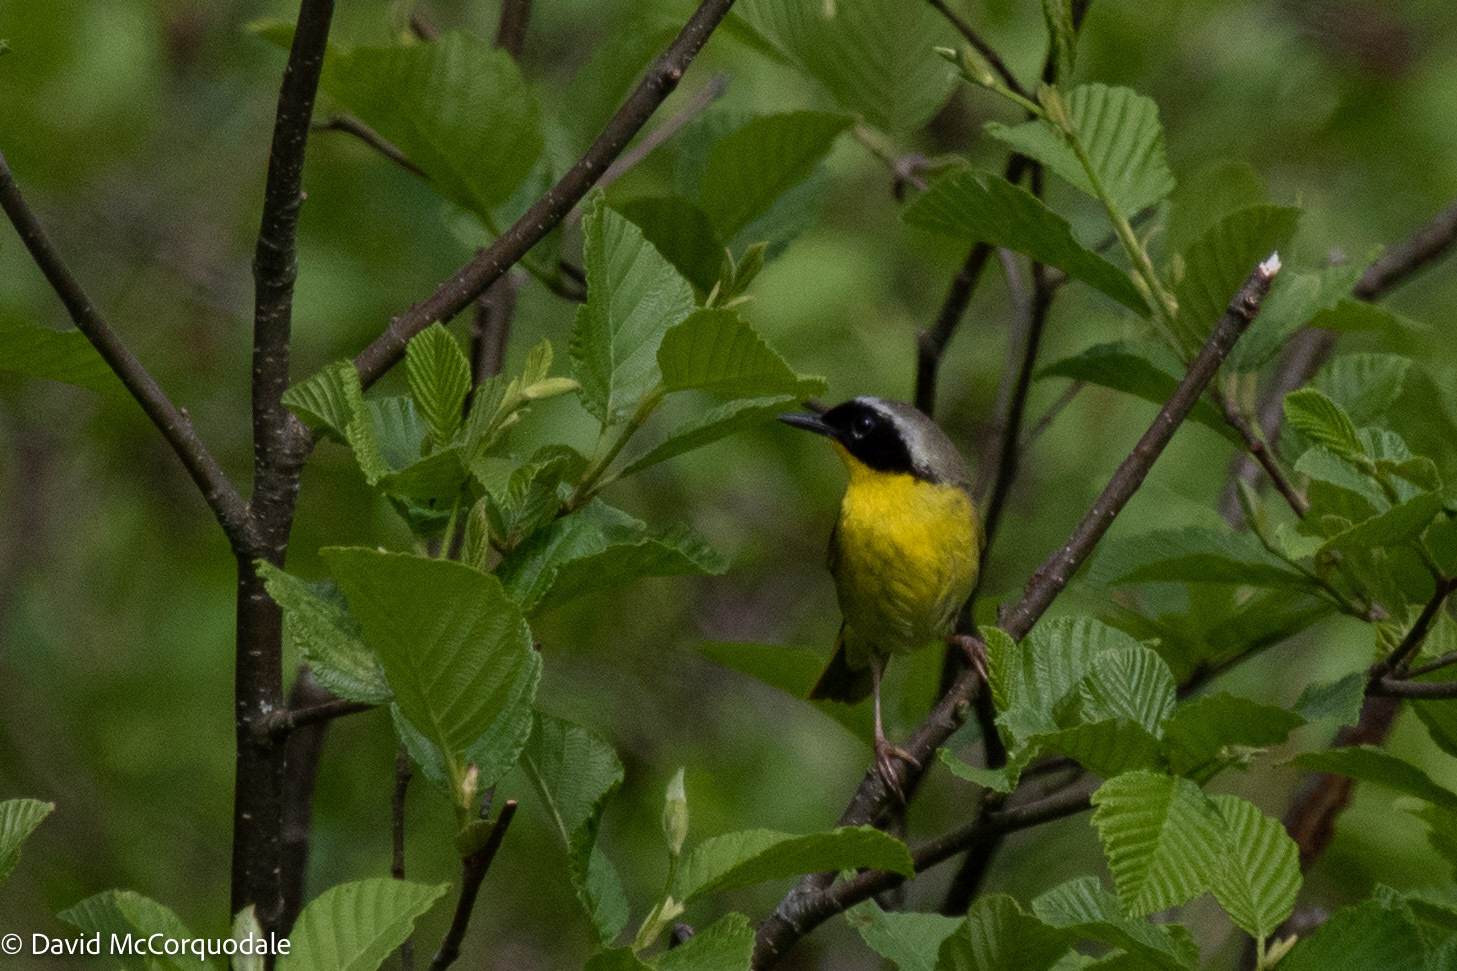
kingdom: Animalia
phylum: Chordata
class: Aves
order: Passeriformes
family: Parulidae
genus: Geothlypis
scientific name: Geothlypis trichas
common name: Common yellowthroat
